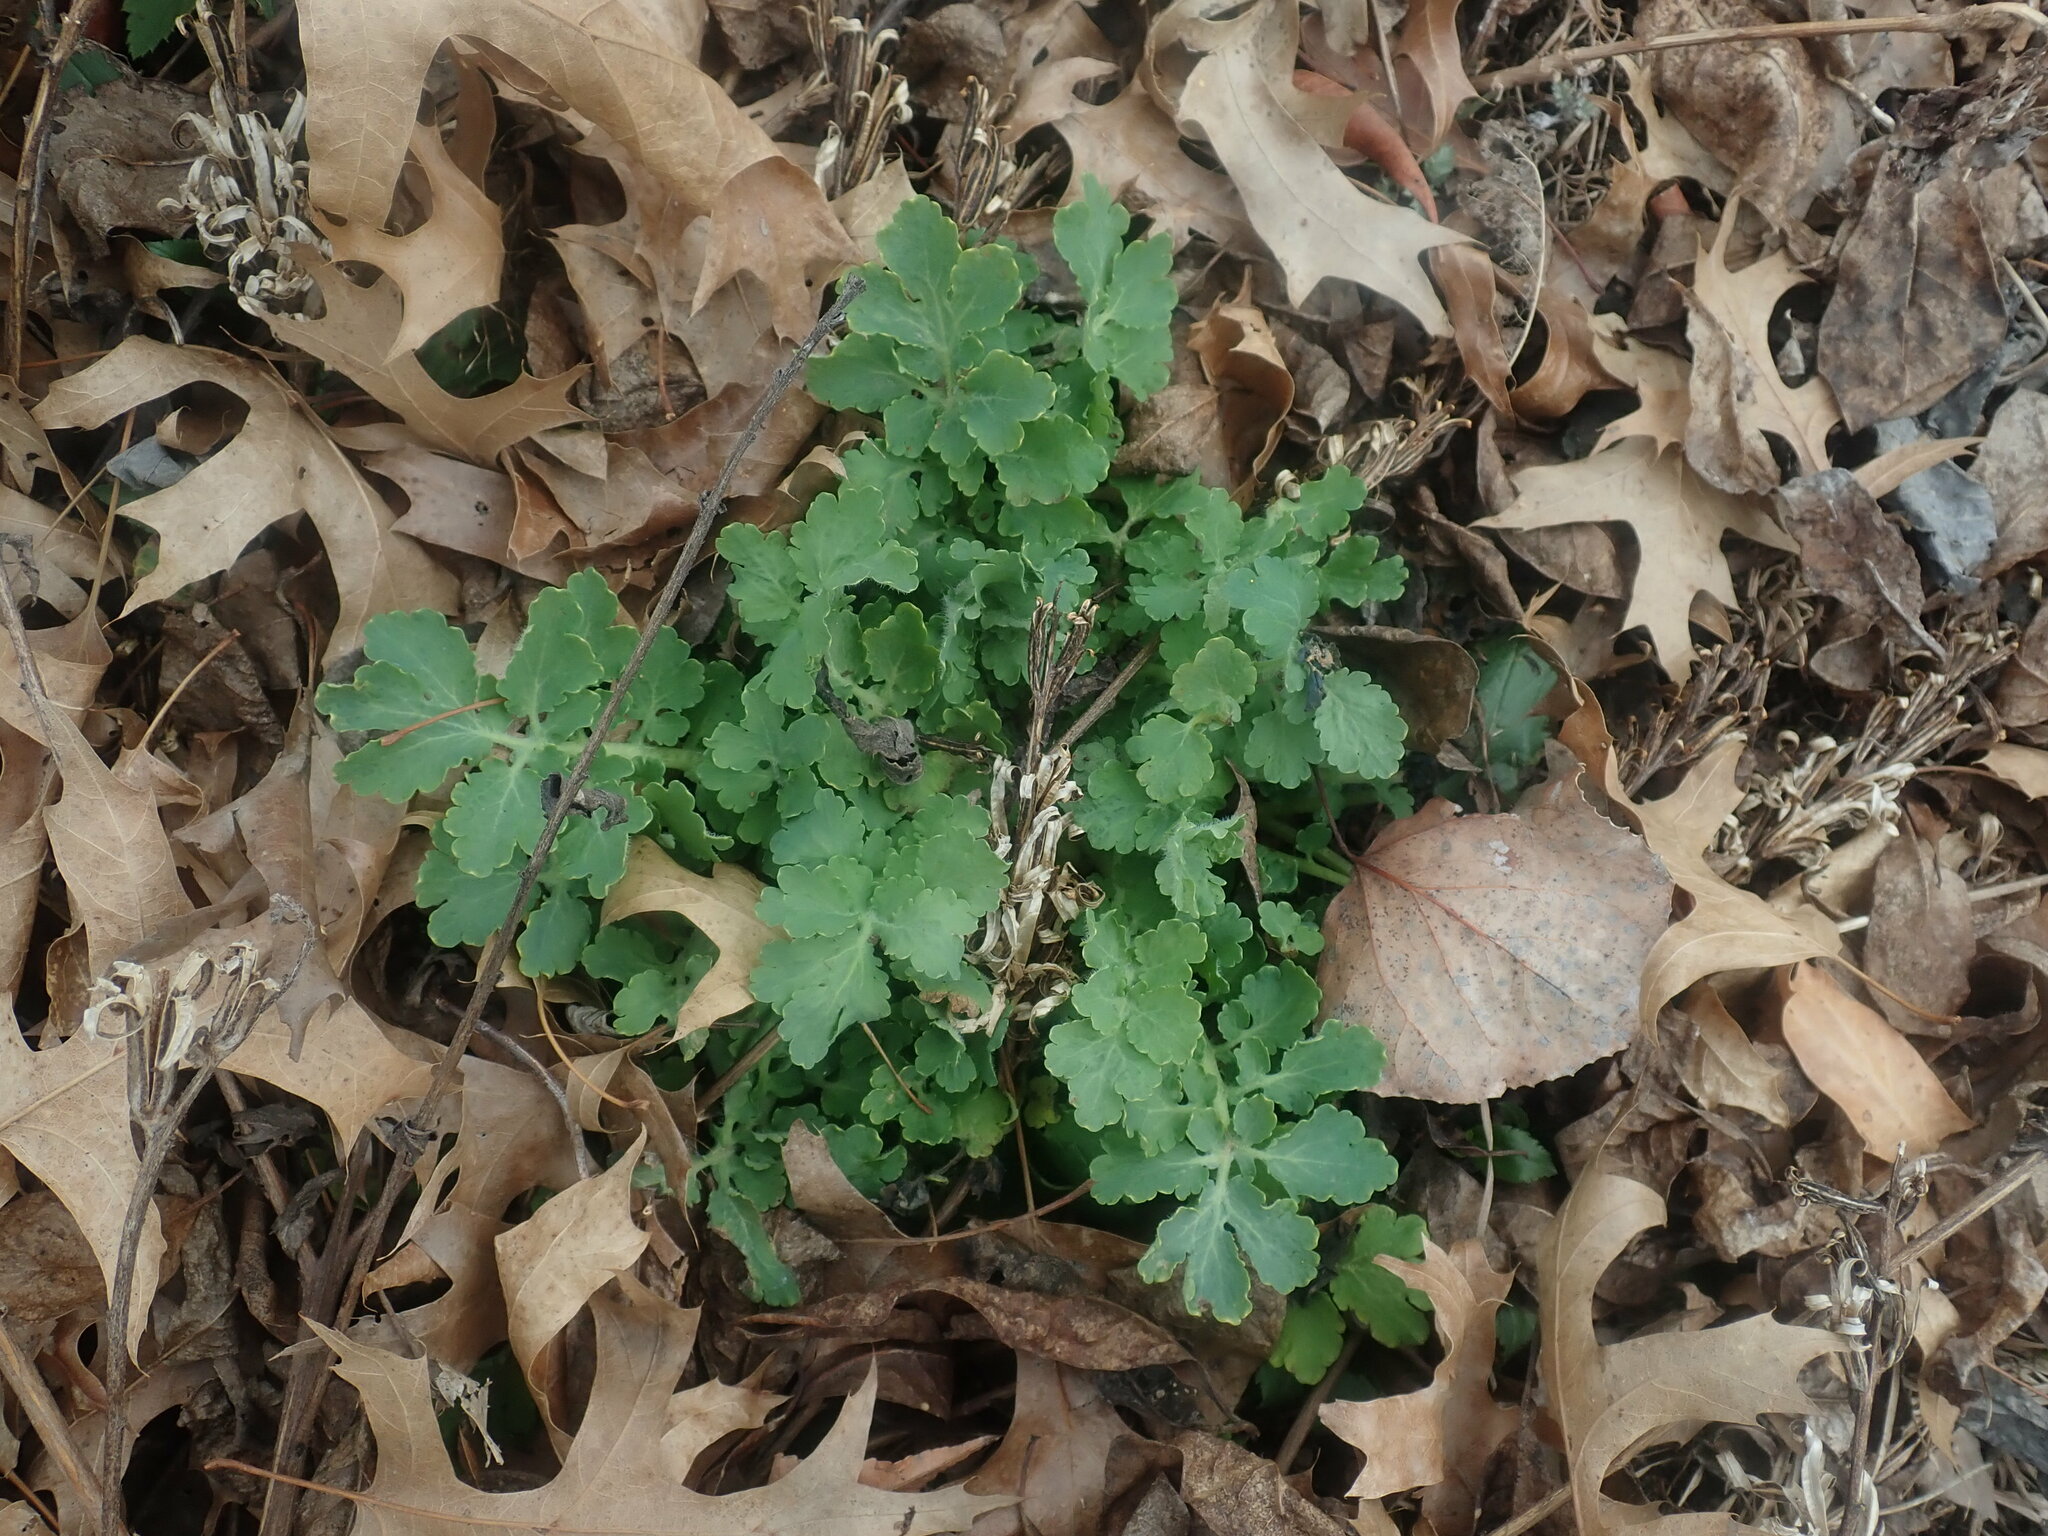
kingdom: Plantae
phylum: Tracheophyta
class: Magnoliopsida
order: Ranunculales
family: Papaveraceae
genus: Chelidonium
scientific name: Chelidonium majus
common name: Greater celandine
